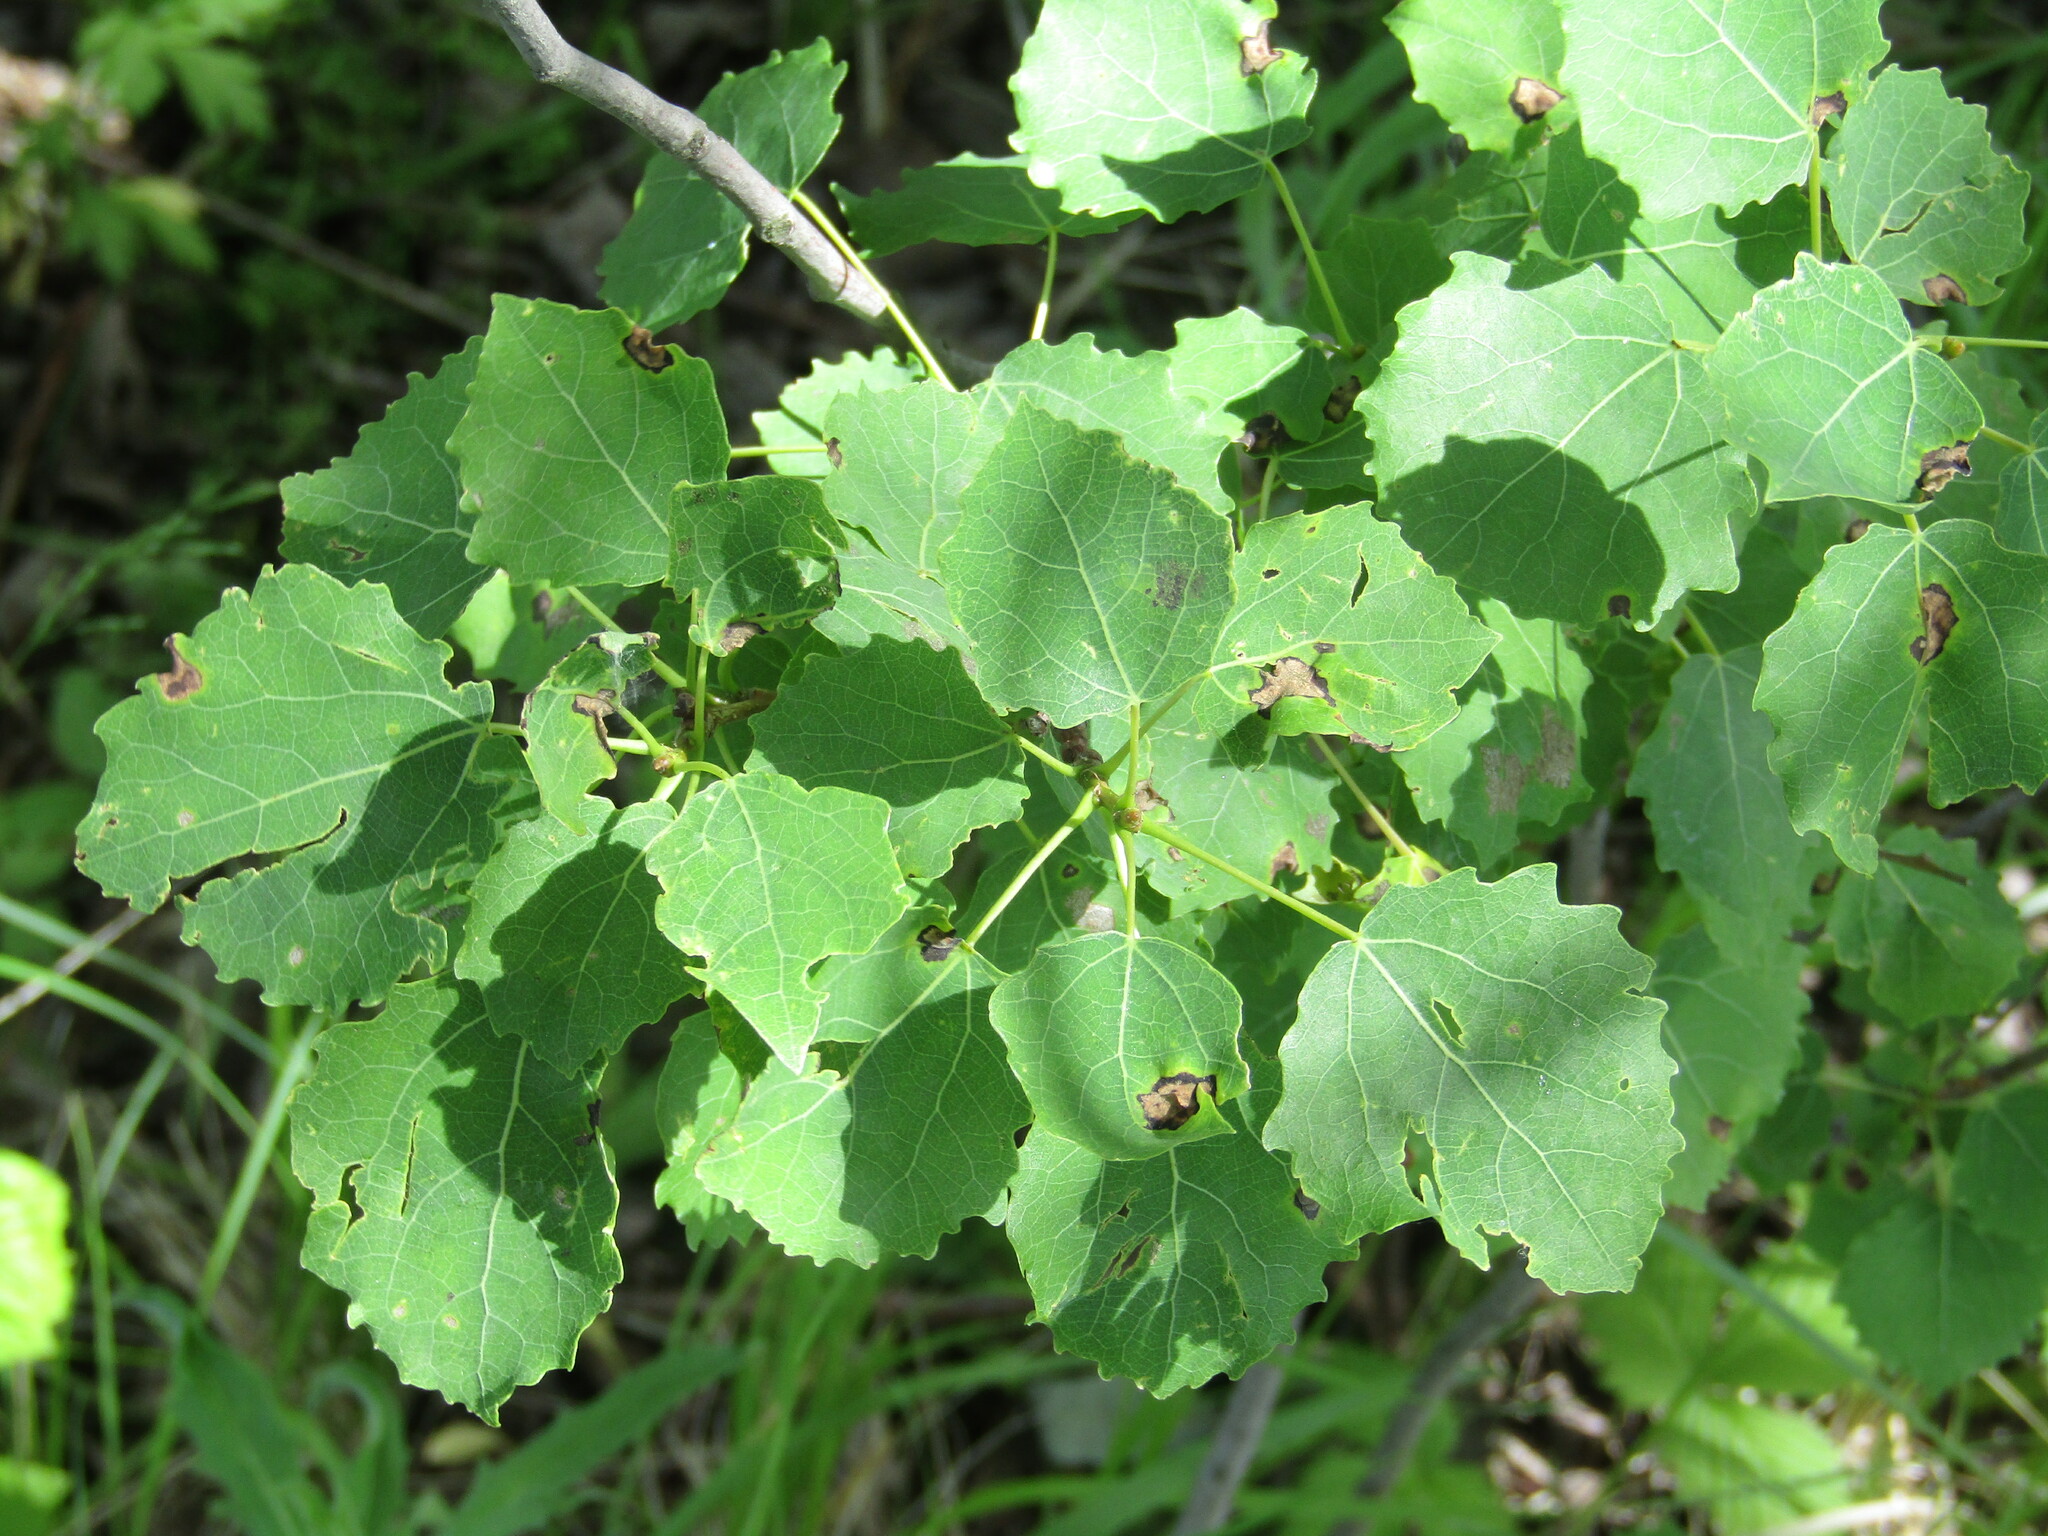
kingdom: Plantae
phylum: Tracheophyta
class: Magnoliopsida
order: Malpighiales
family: Salicaceae
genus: Populus
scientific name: Populus tremula
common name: European aspen
